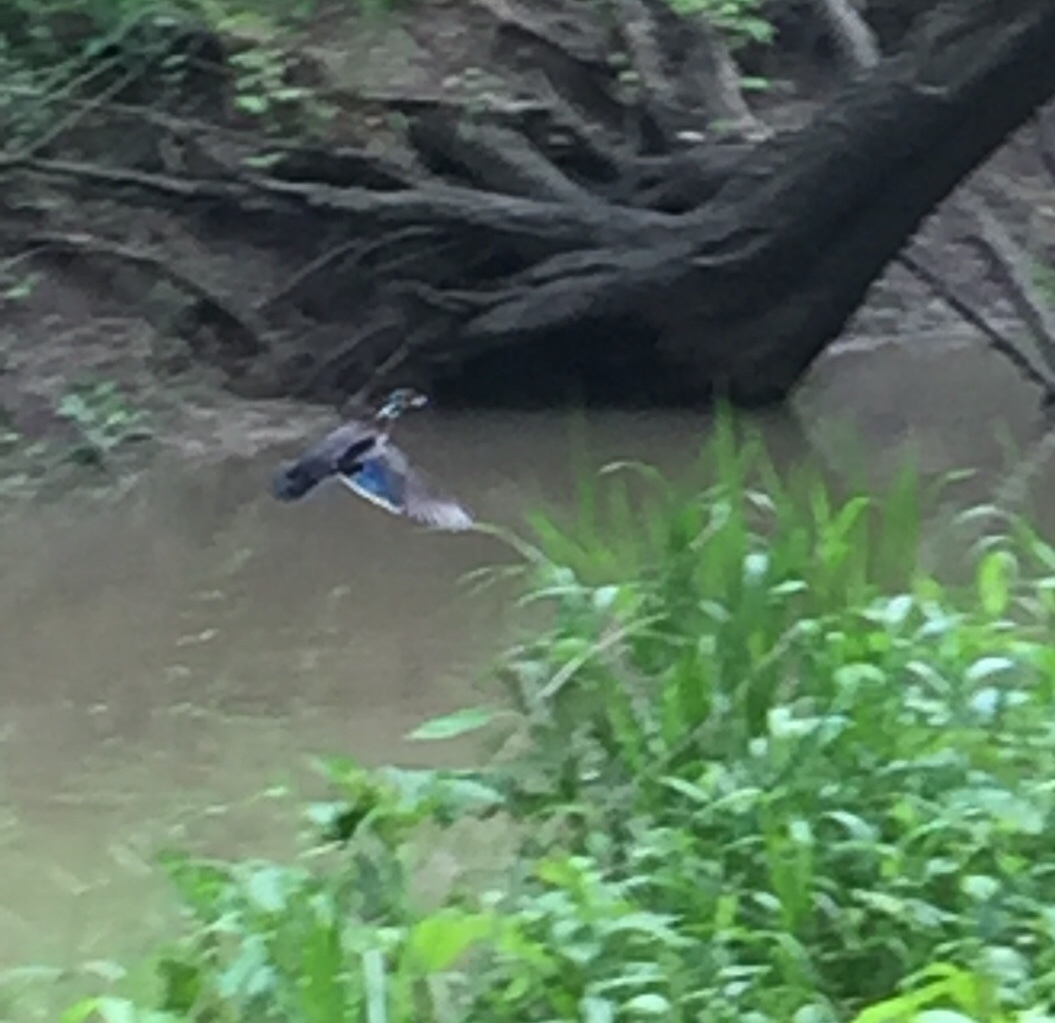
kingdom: Animalia
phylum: Chordata
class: Aves
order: Anseriformes
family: Anatidae
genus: Aix
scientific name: Aix sponsa
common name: Wood duck
